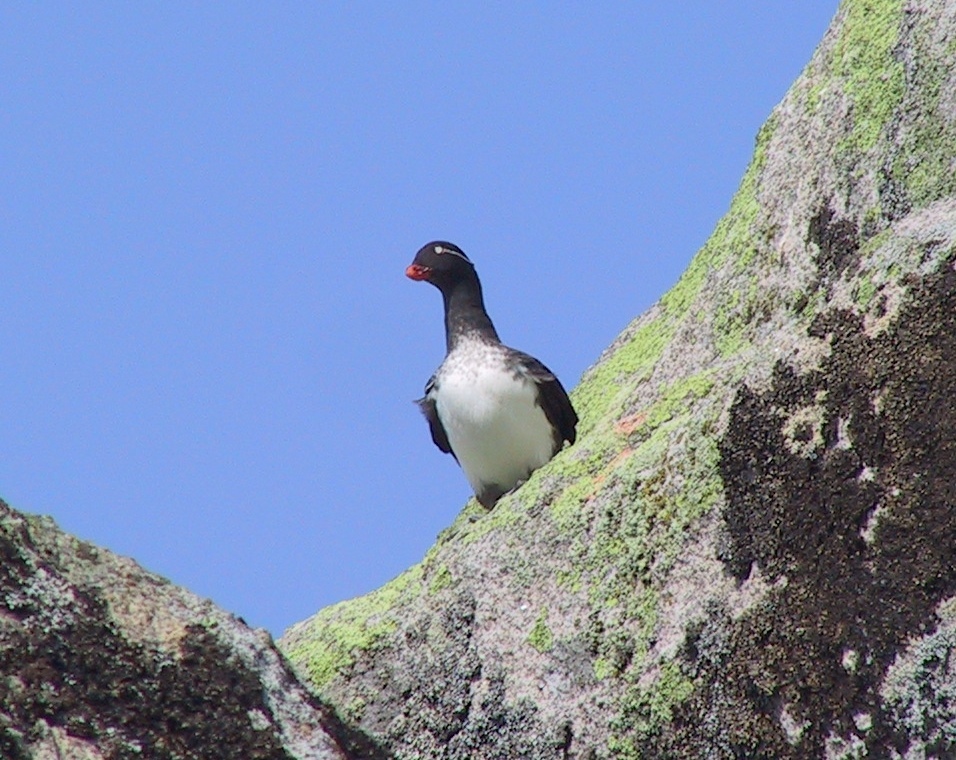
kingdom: Animalia
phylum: Chordata
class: Aves
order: Charadriiformes
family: Alcidae
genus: Aethia
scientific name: Aethia psittacula
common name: Parakeet auklet
